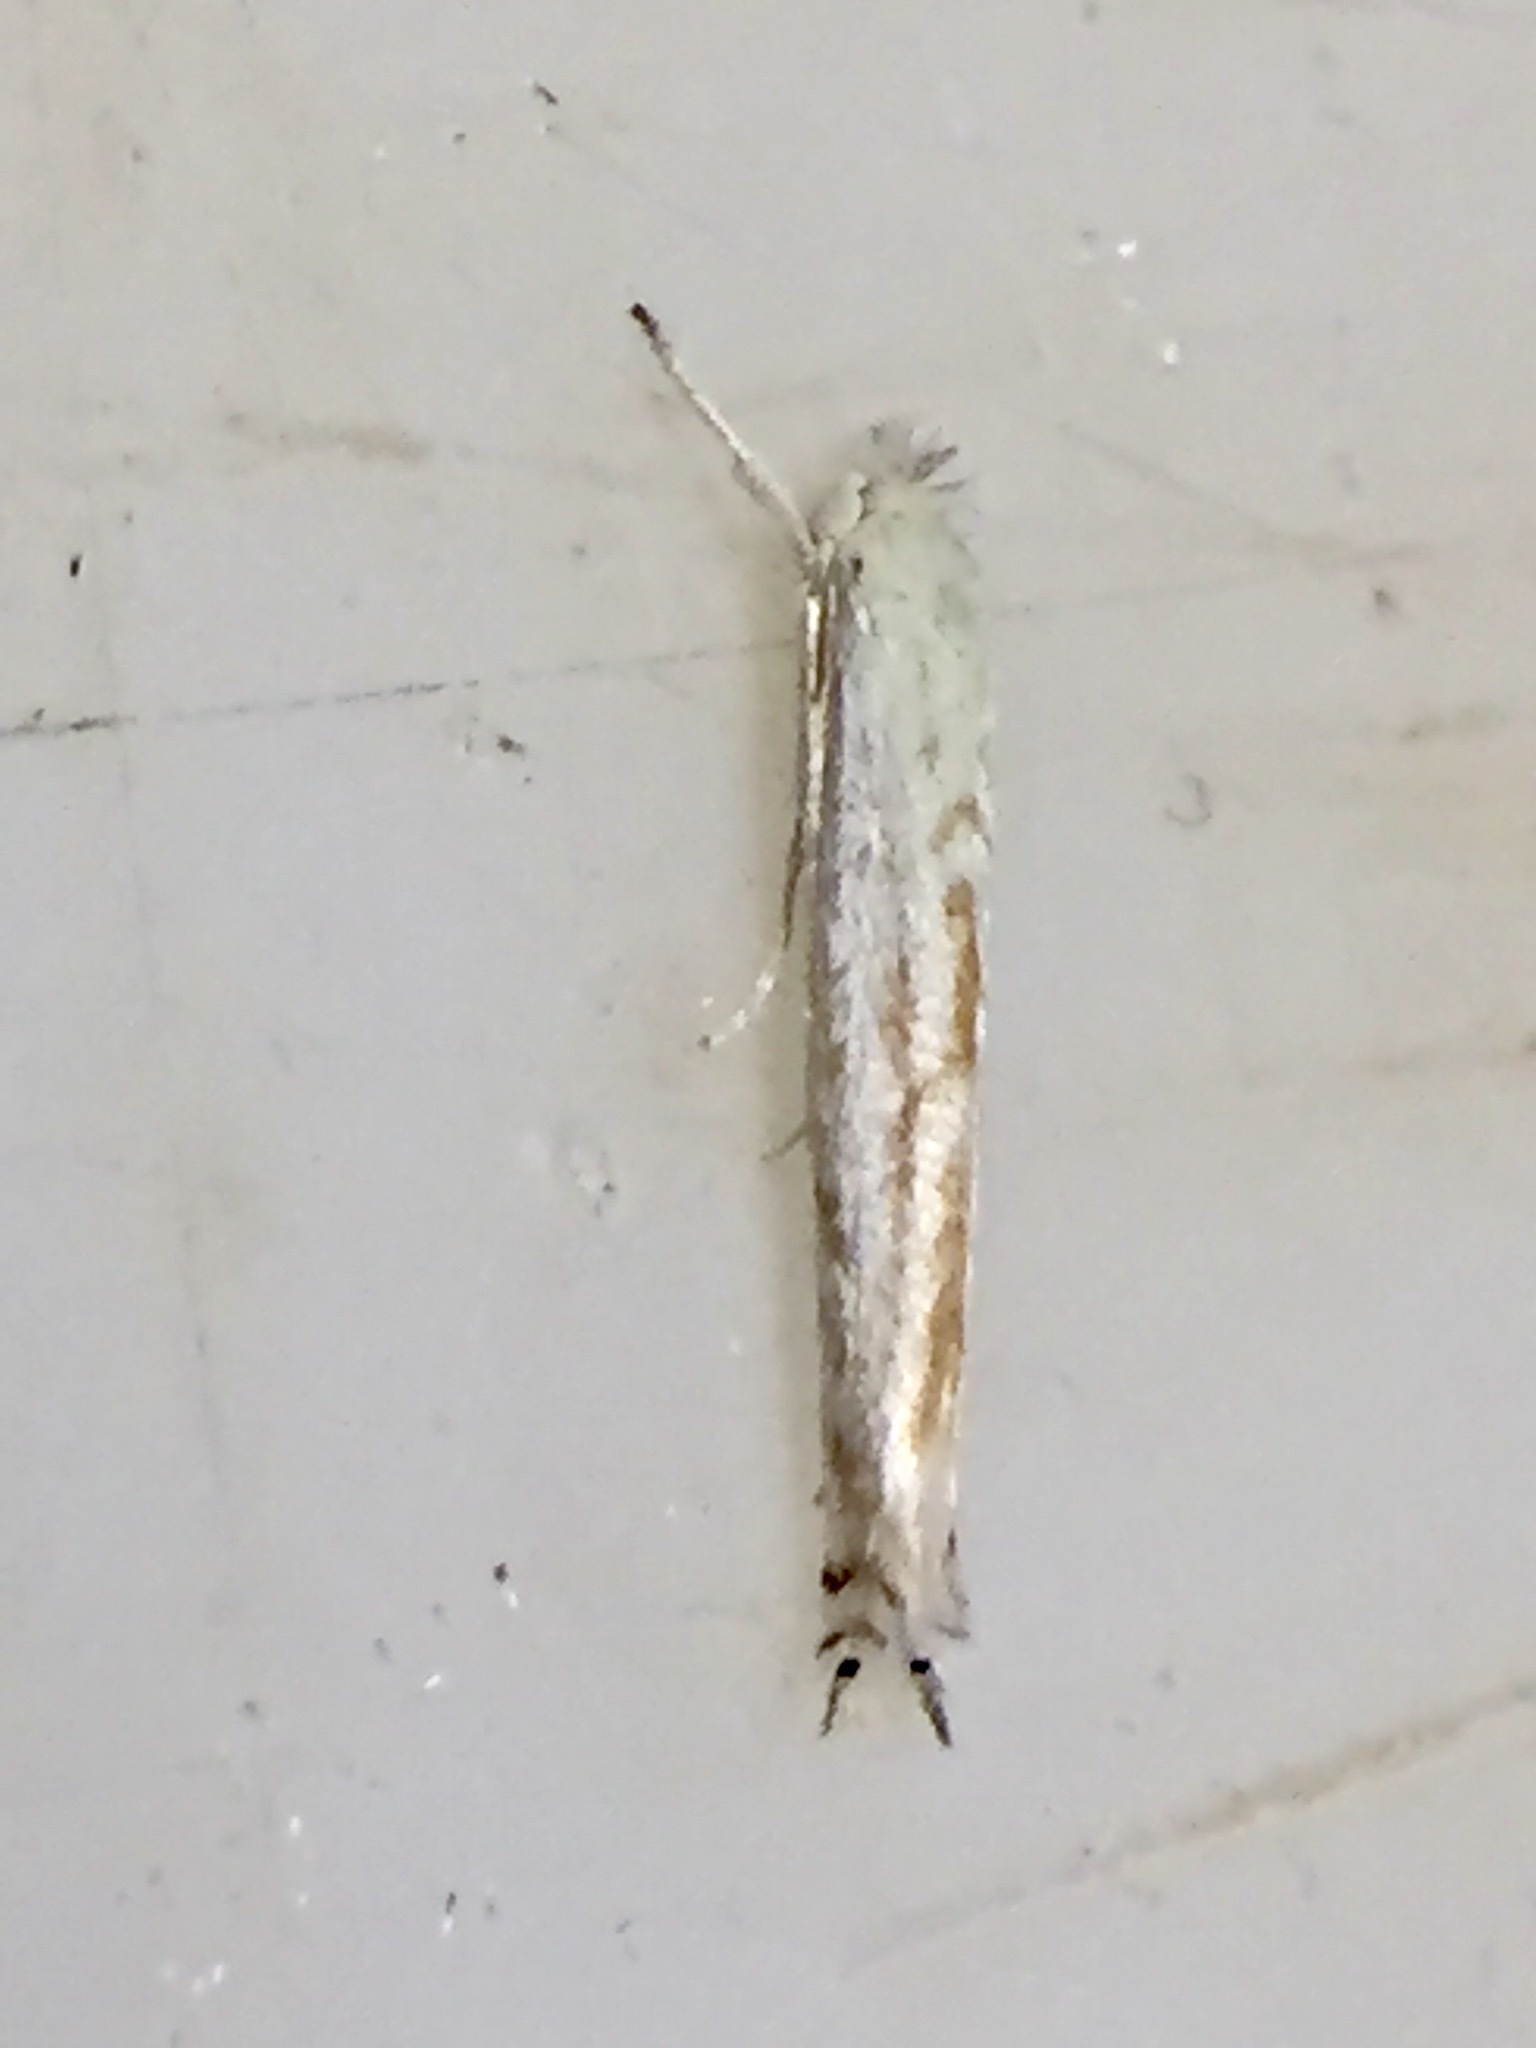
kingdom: Animalia
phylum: Arthropoda
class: Insecta
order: Lepidoptera
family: Lyonetiidae
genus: Stegommata
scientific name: Stegommata sulfuratella
